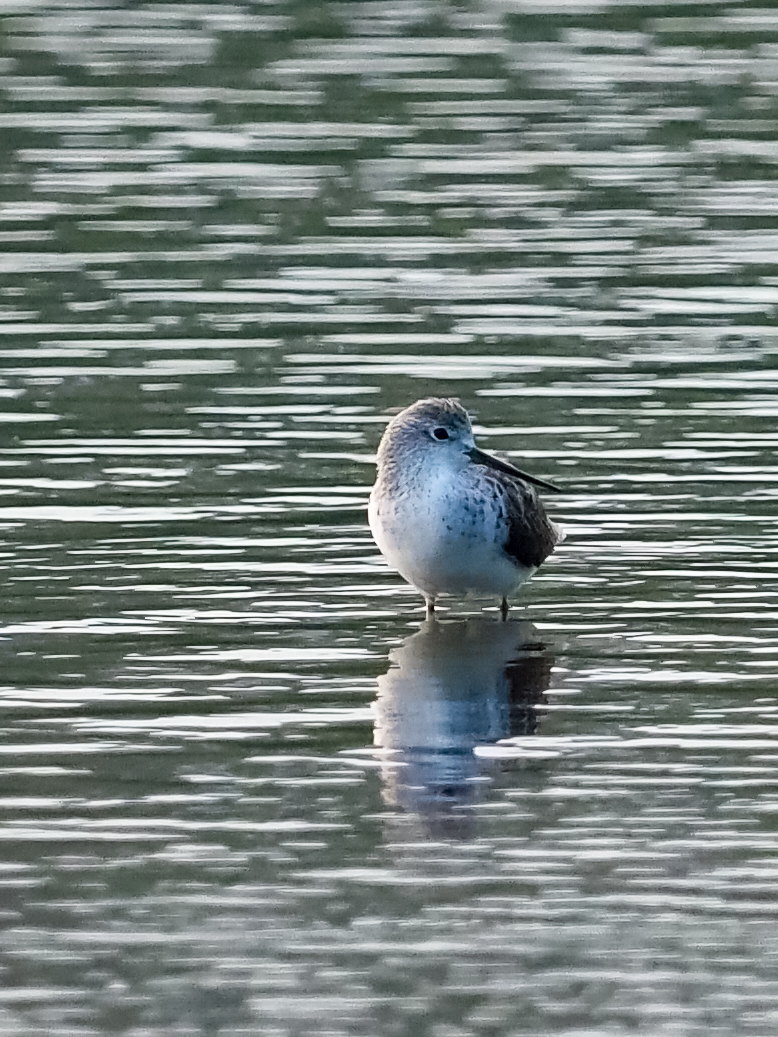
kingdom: Animalia
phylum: Chordata
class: Aves
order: Charadriiformes
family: Scolopacidae
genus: Tringa
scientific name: Tringa stagnatilis
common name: Marsh sandpiper
